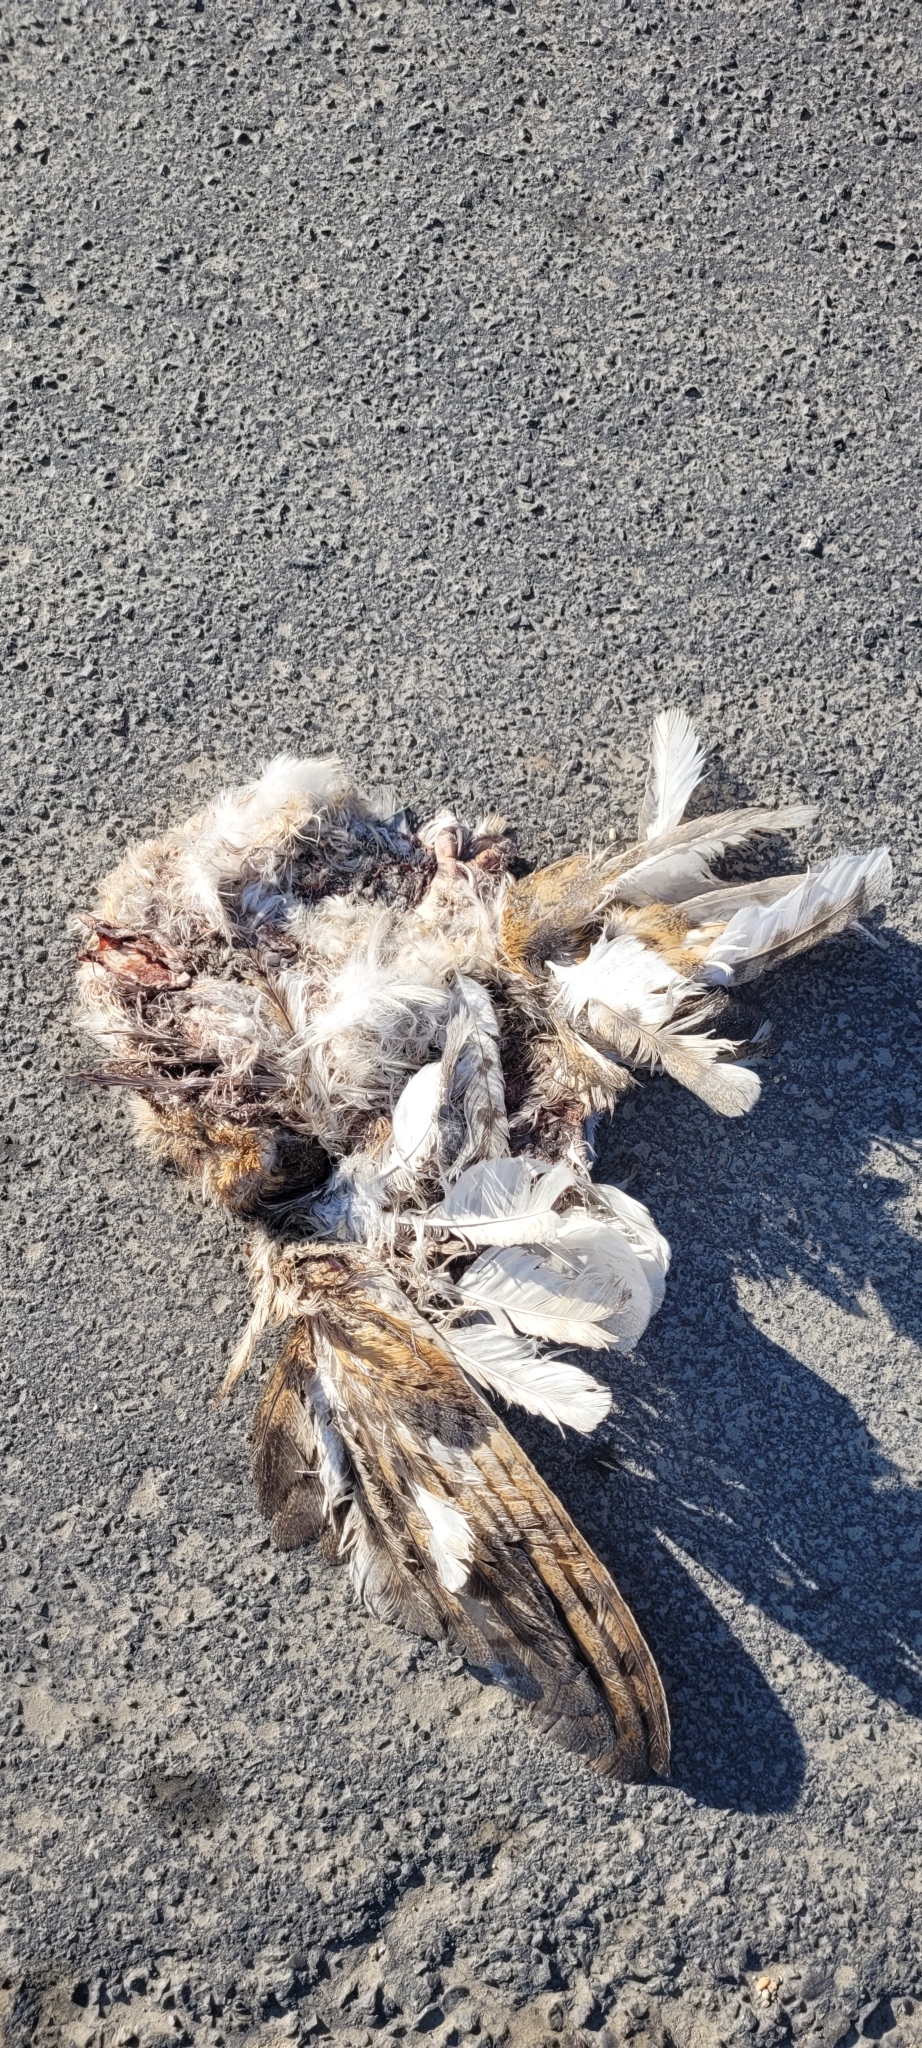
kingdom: Animalia
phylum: Chordata
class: Aves
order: Strigiformes
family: Tytonidae
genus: Tyto
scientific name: Tyto furcata
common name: American barn owl
